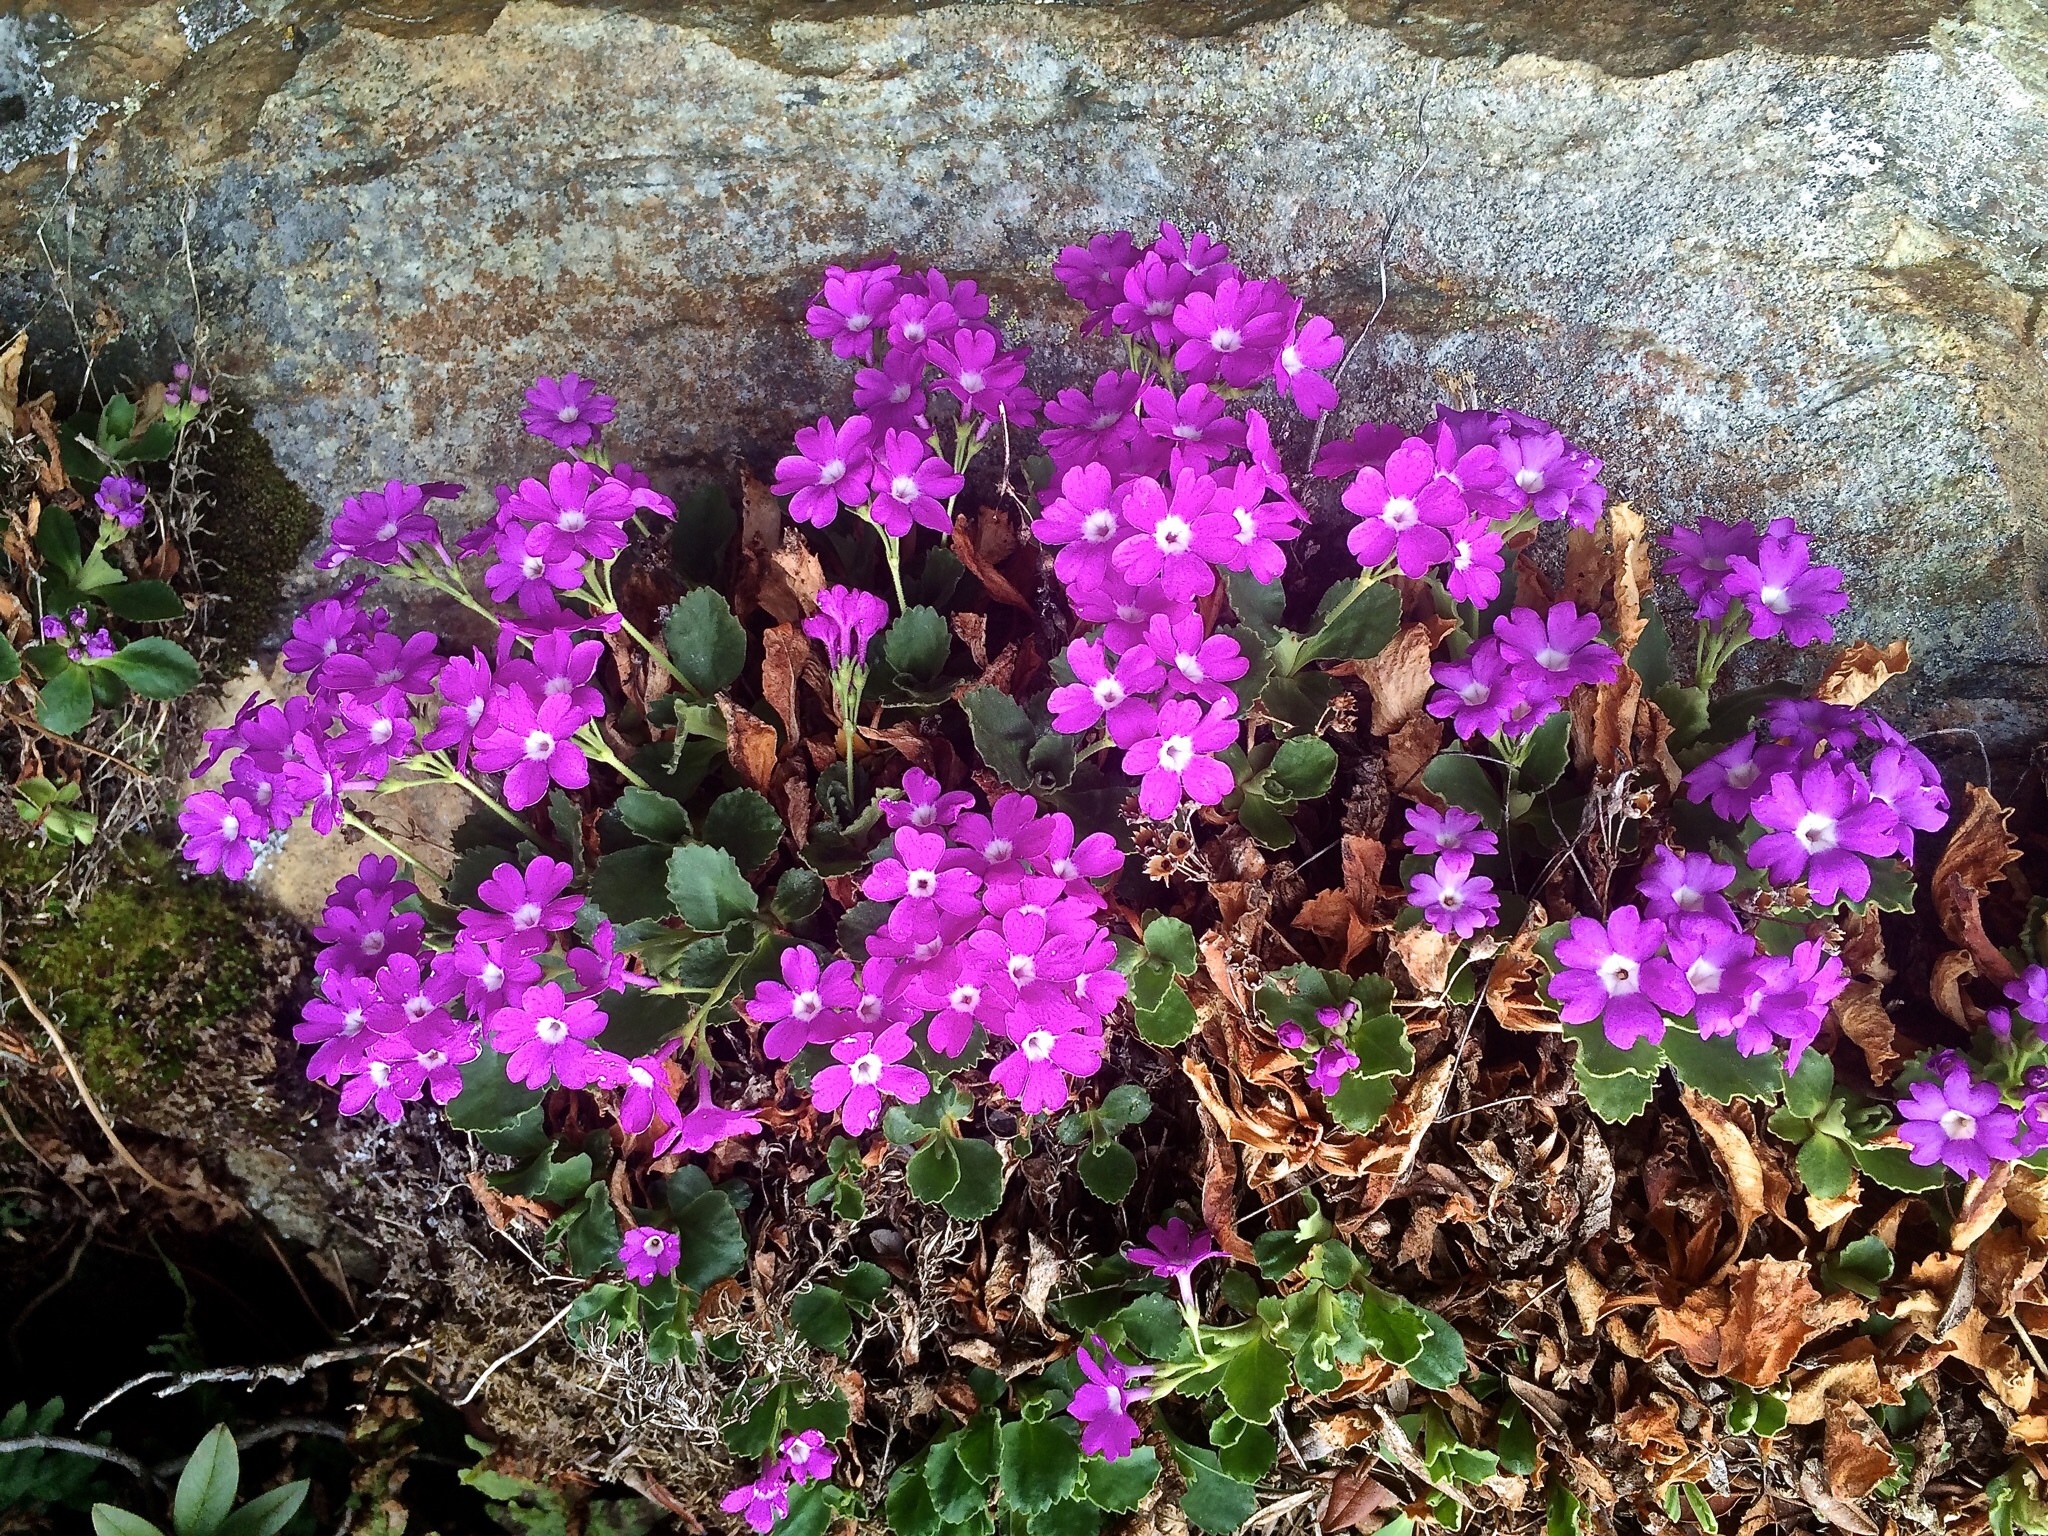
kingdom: Plantae
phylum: Tracheophyta
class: Magnoliopsida
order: Ericales
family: Primulaceae
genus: Primula
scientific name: Primula hirsuta
